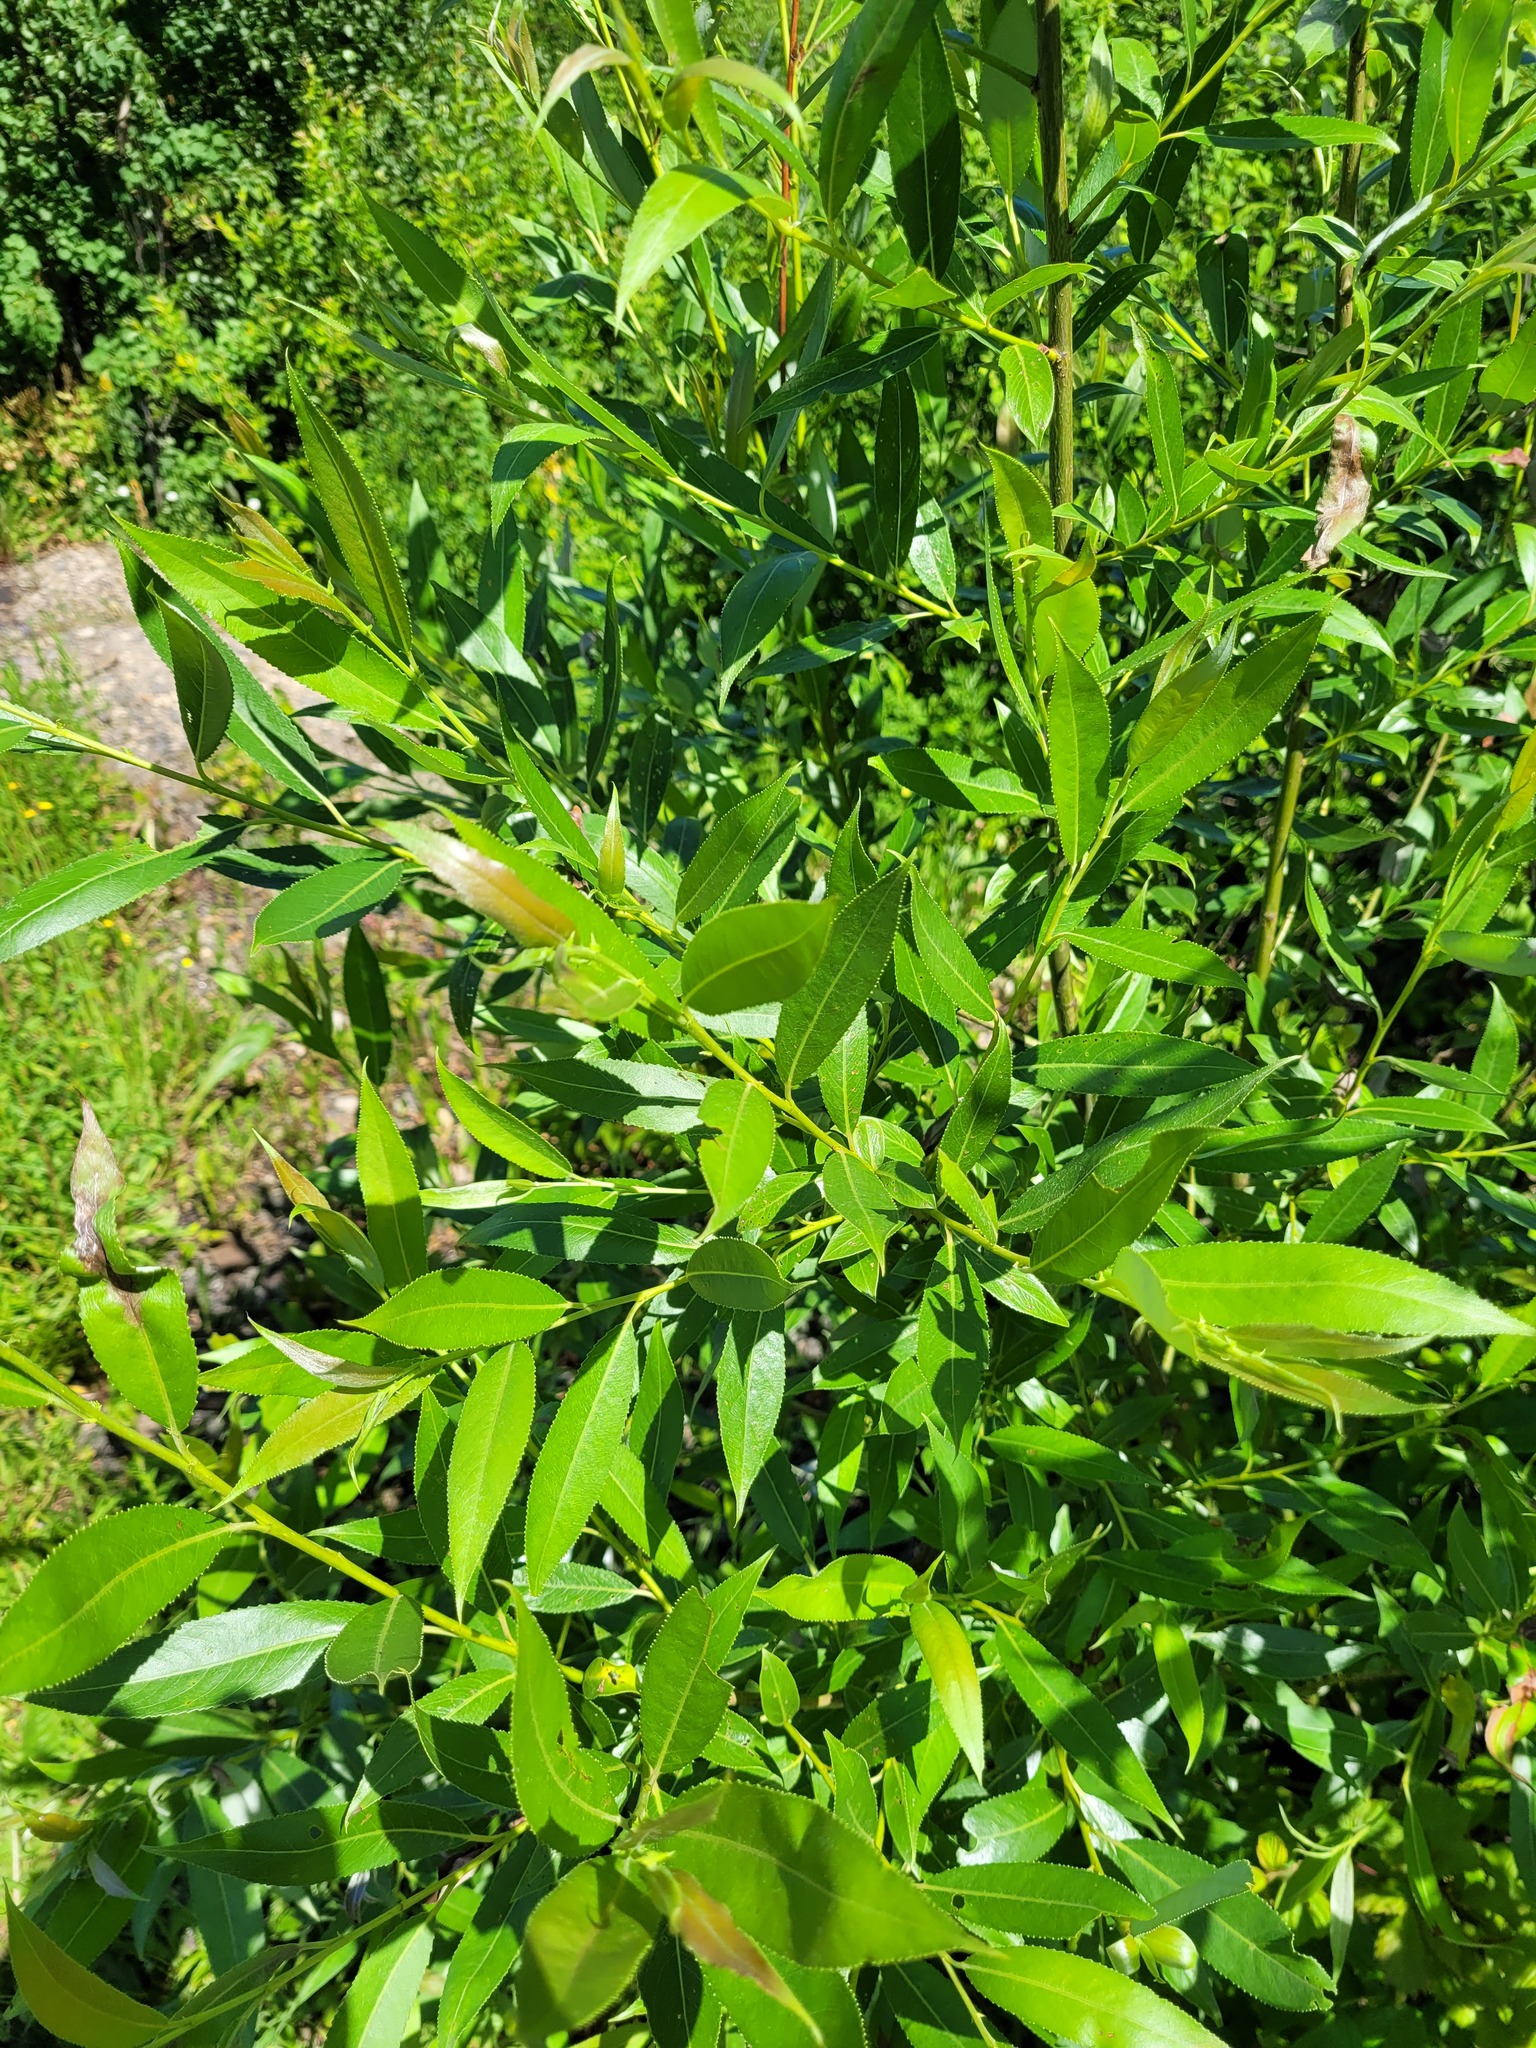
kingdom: Plantae
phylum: Tracheophyta
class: Magnoliopsida
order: Malpighiales
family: Salicaceae
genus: Salix
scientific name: Salix fragilis
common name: Crack willow
